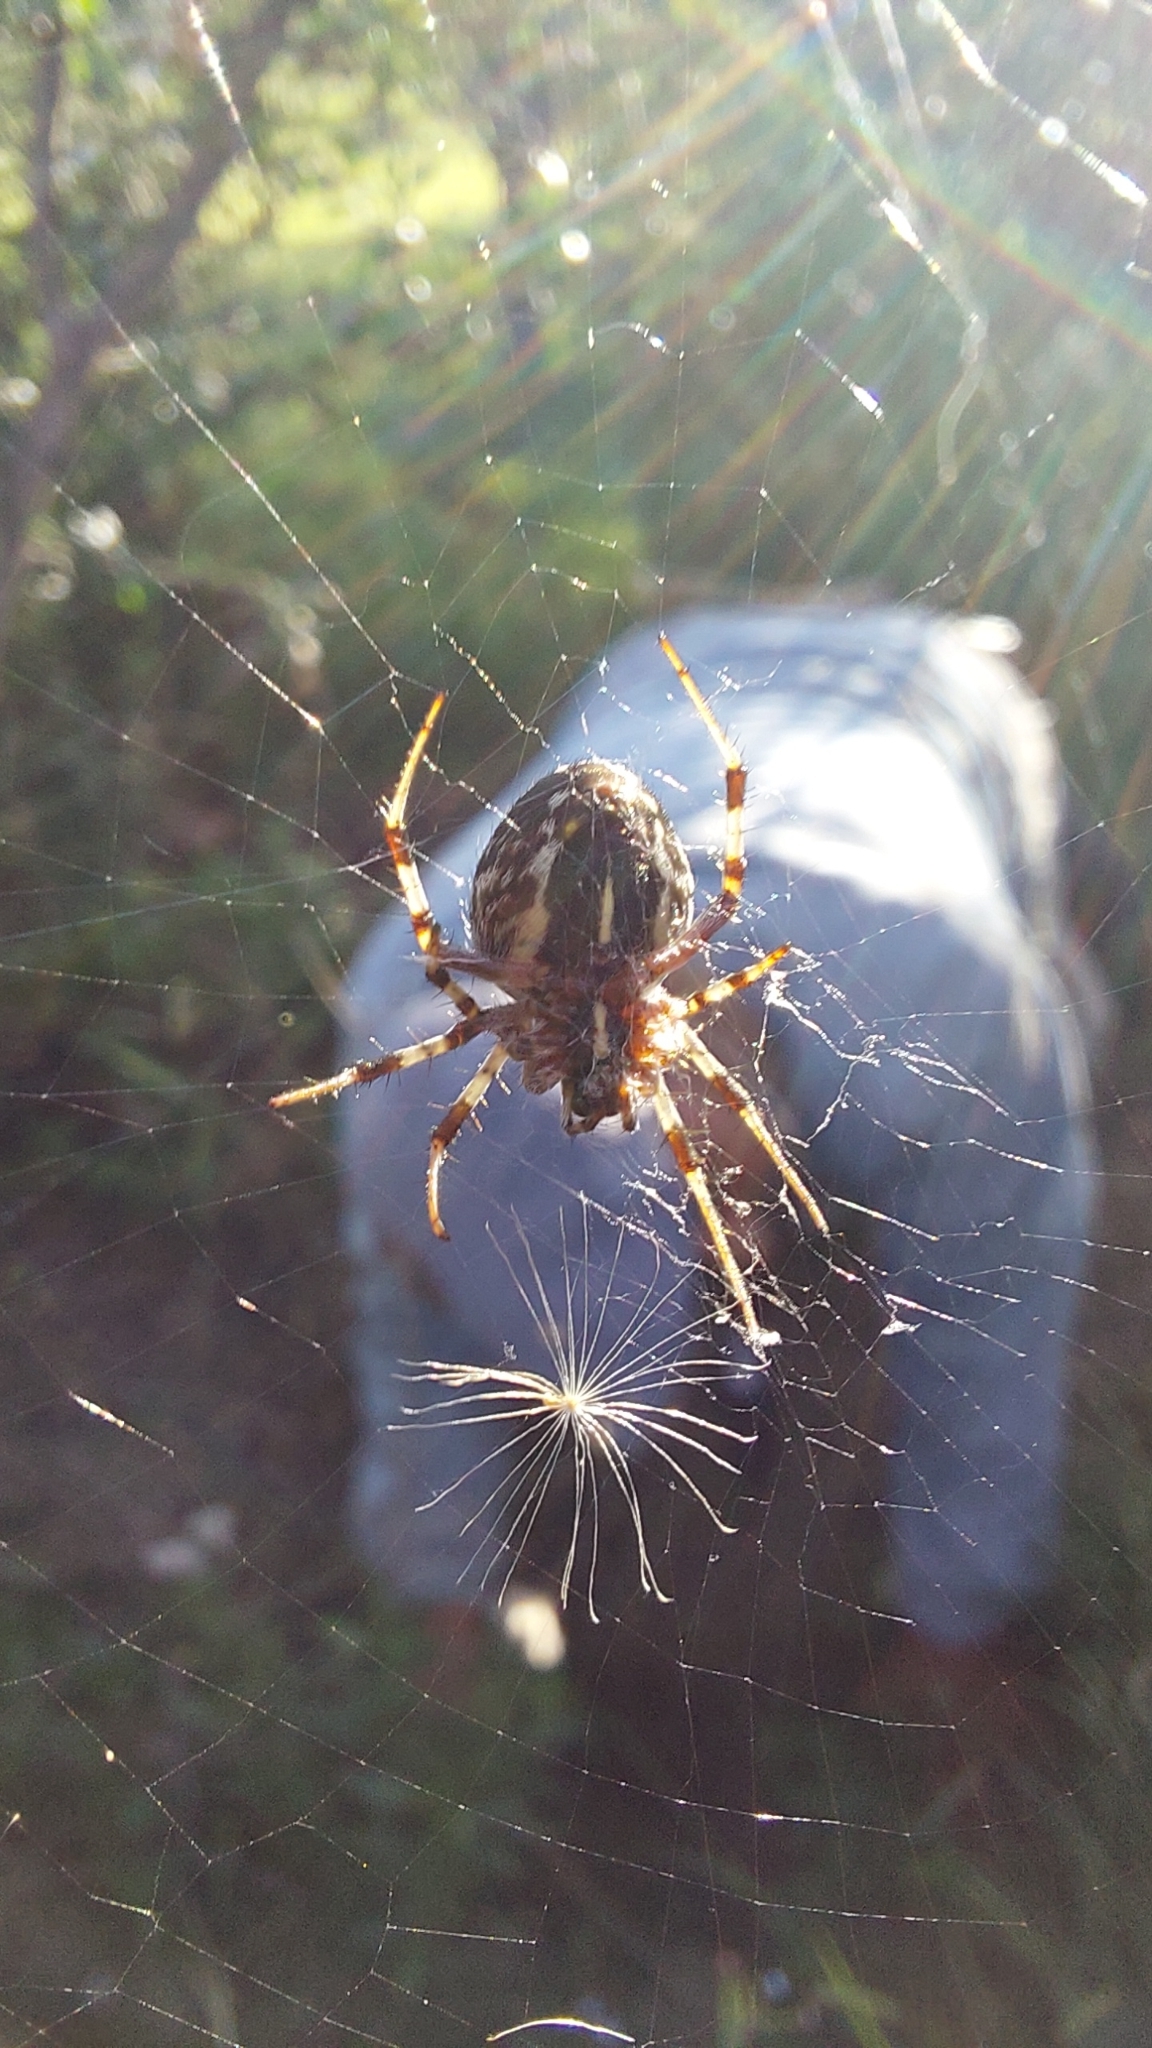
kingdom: Animalia
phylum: Arthropoda
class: Arachnida
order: Araneae
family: Araneidae
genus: Metepeira
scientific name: Metepeira
